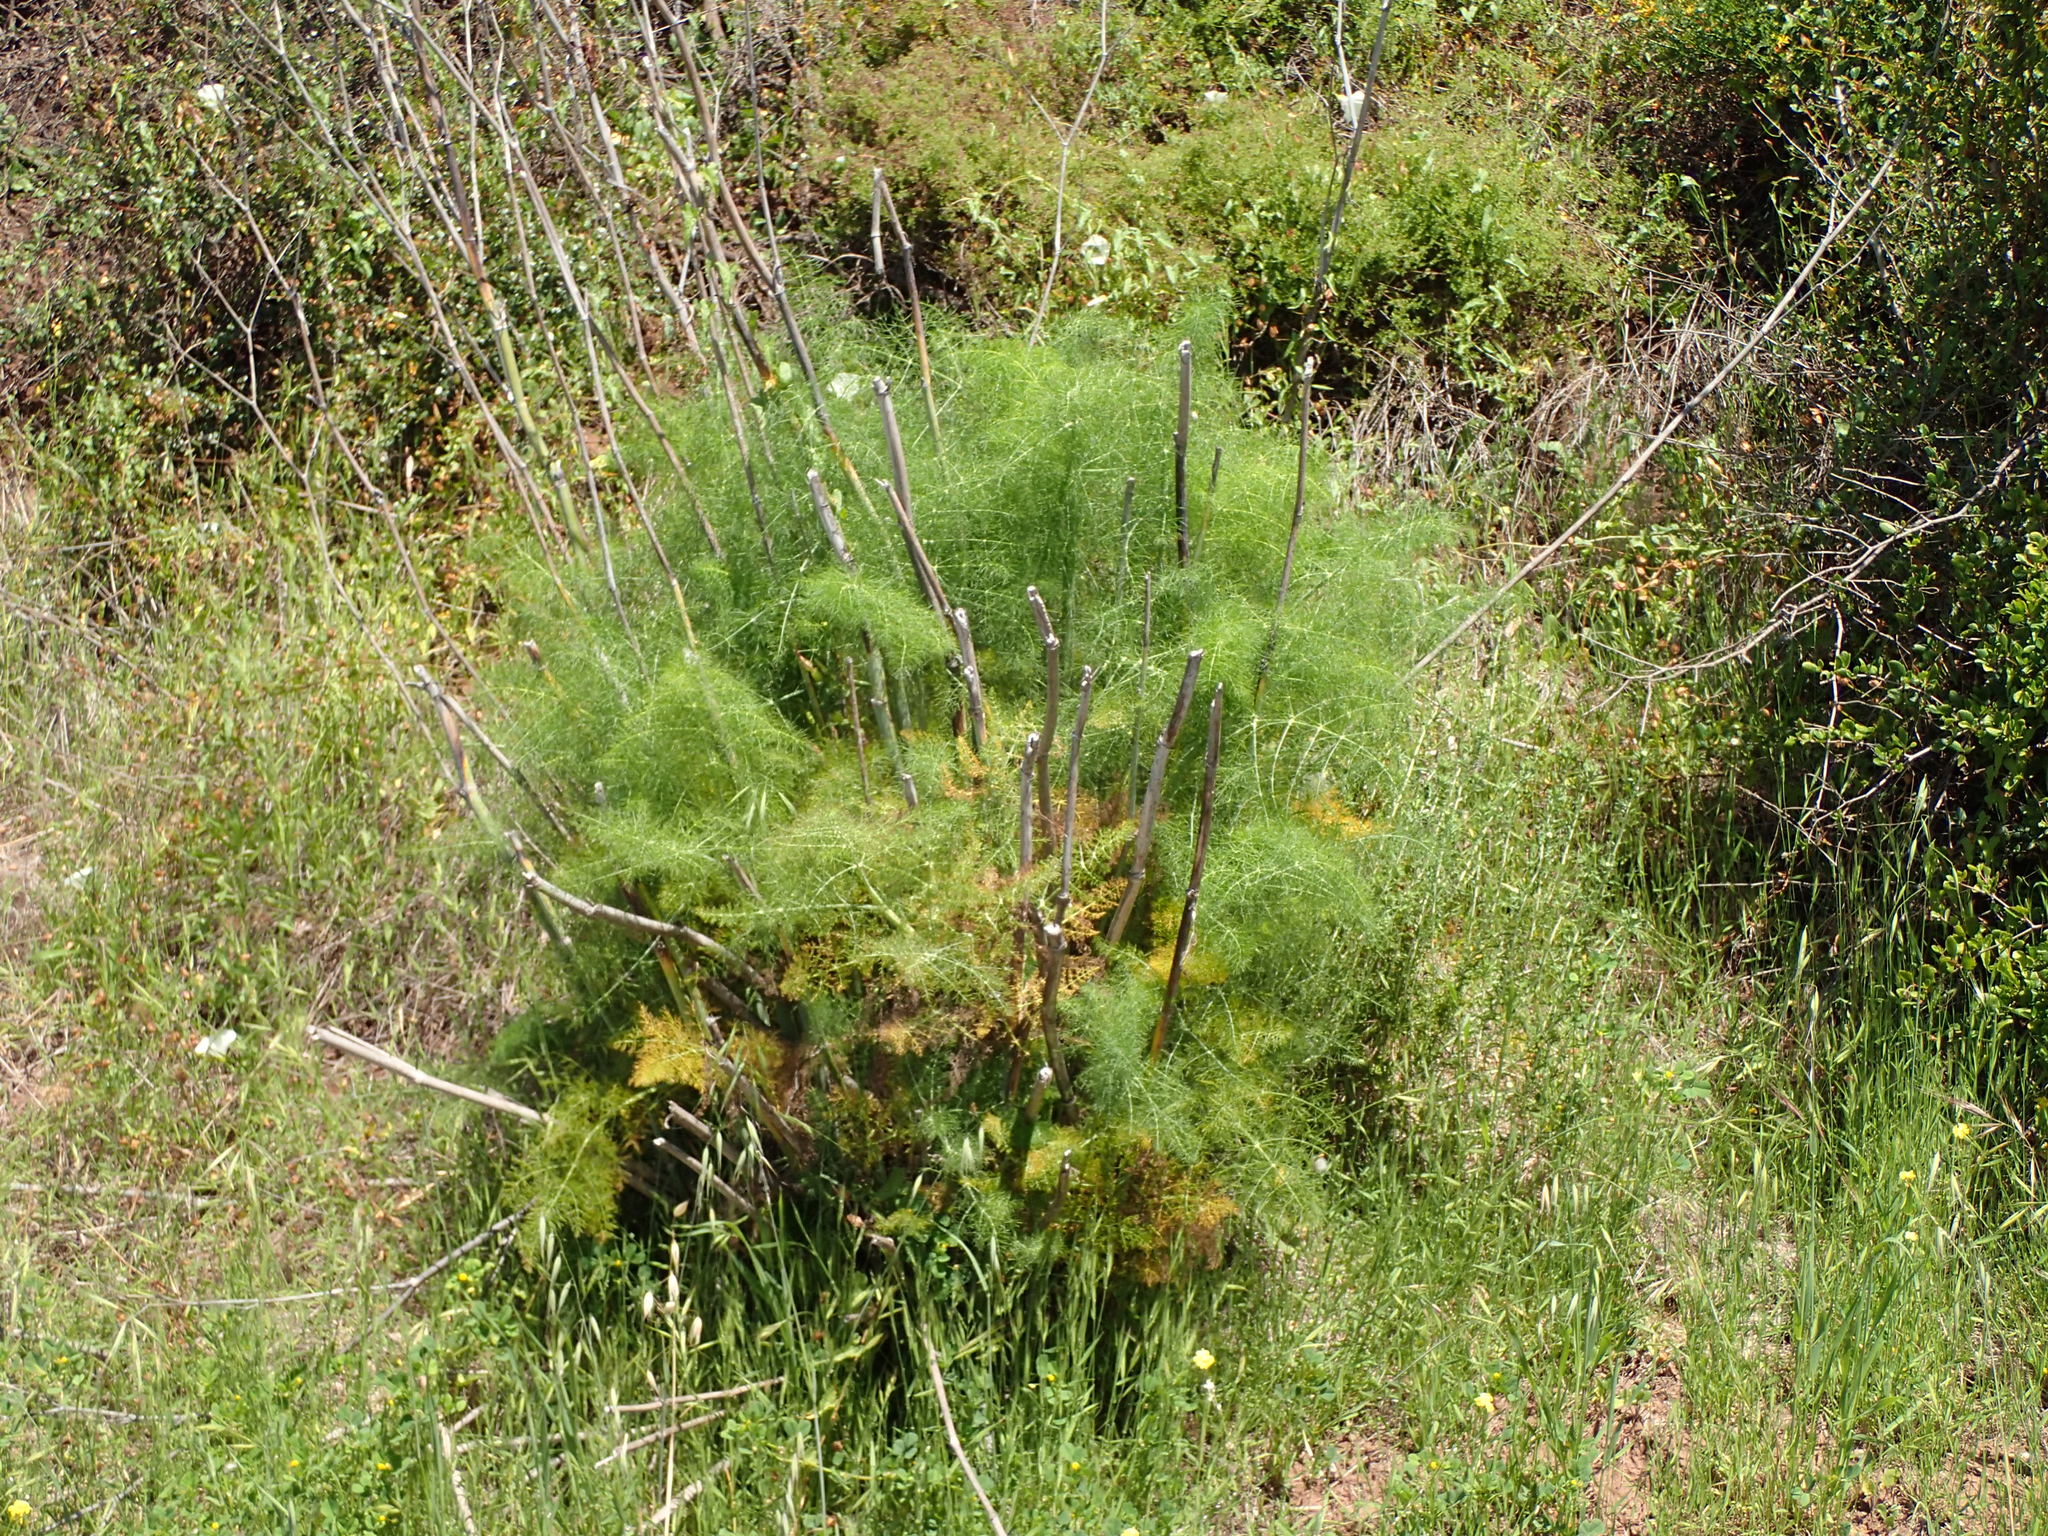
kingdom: Plantae
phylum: Tracheophyta
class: Magnoliopsida
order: Apiales
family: Apiaceae
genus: Foeniculum
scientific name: Foeniculum vulgare
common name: Fennel
